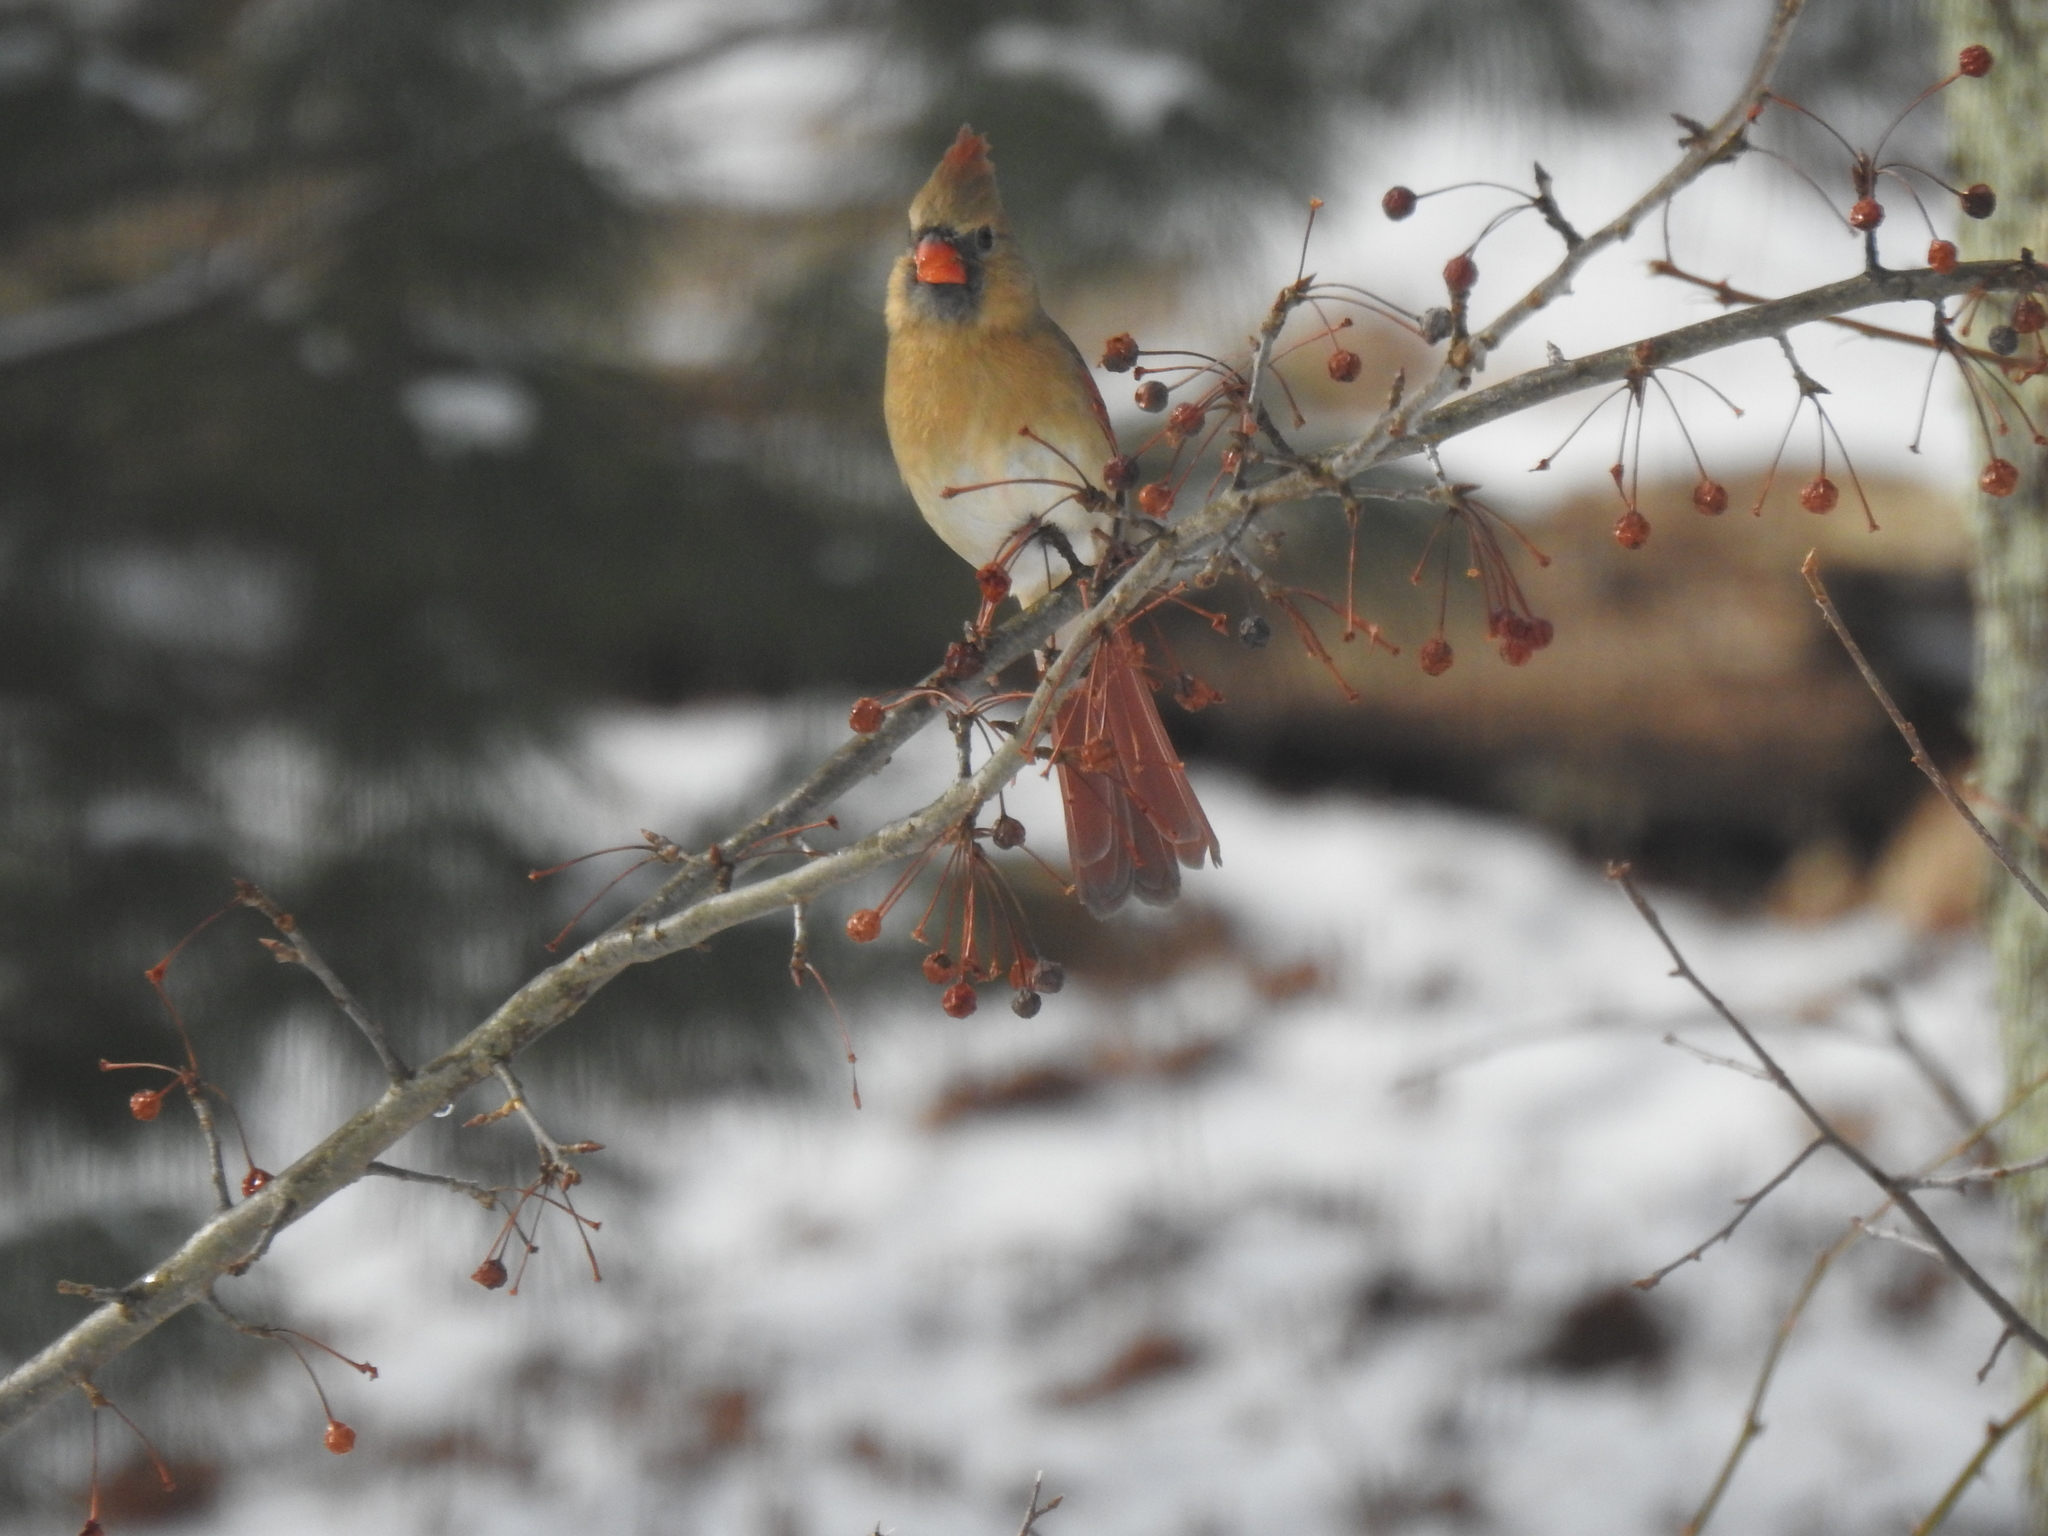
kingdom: Animalia
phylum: Chordata
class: Aves
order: Passeriformes
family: Cardinalidae
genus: Cardinalis
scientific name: Cardinalis cardinalis
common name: Northern cardinal
